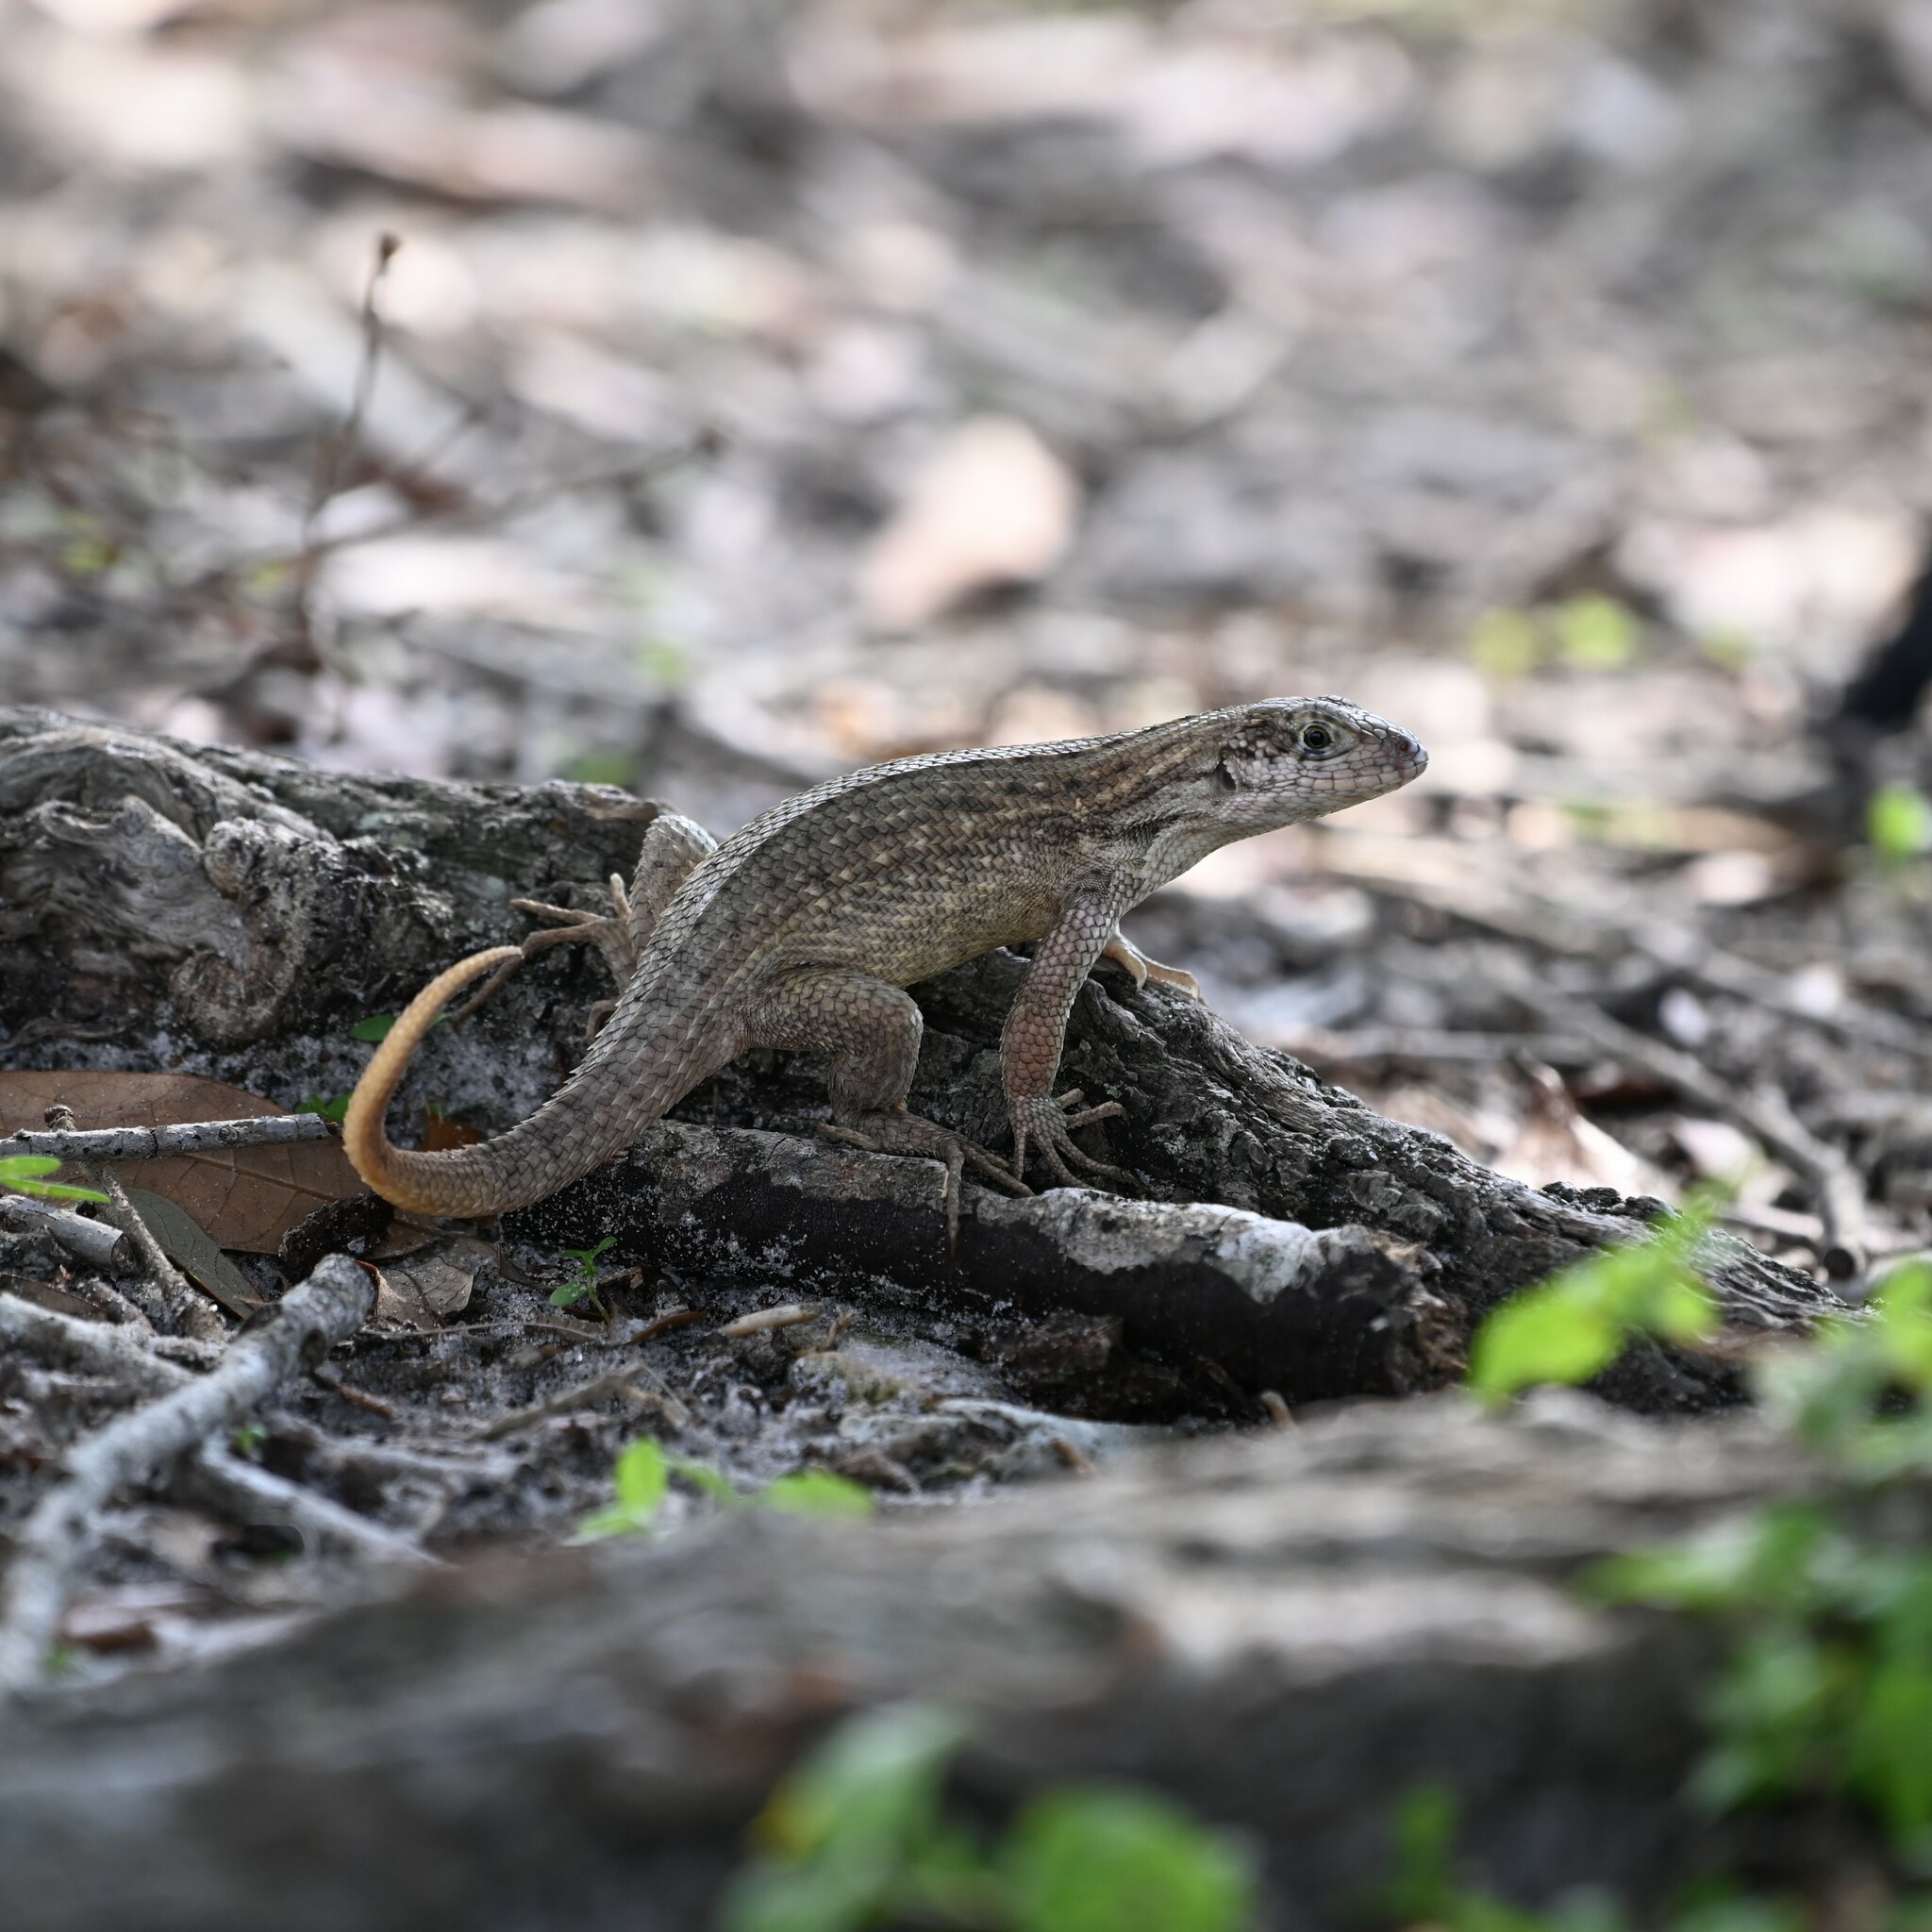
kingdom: Animalia
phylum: Chordata
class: Squamata
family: Leiocephalidae
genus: Leiocephalus
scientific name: Leiocephalus carinatus
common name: Northern curly-tailed lizard
